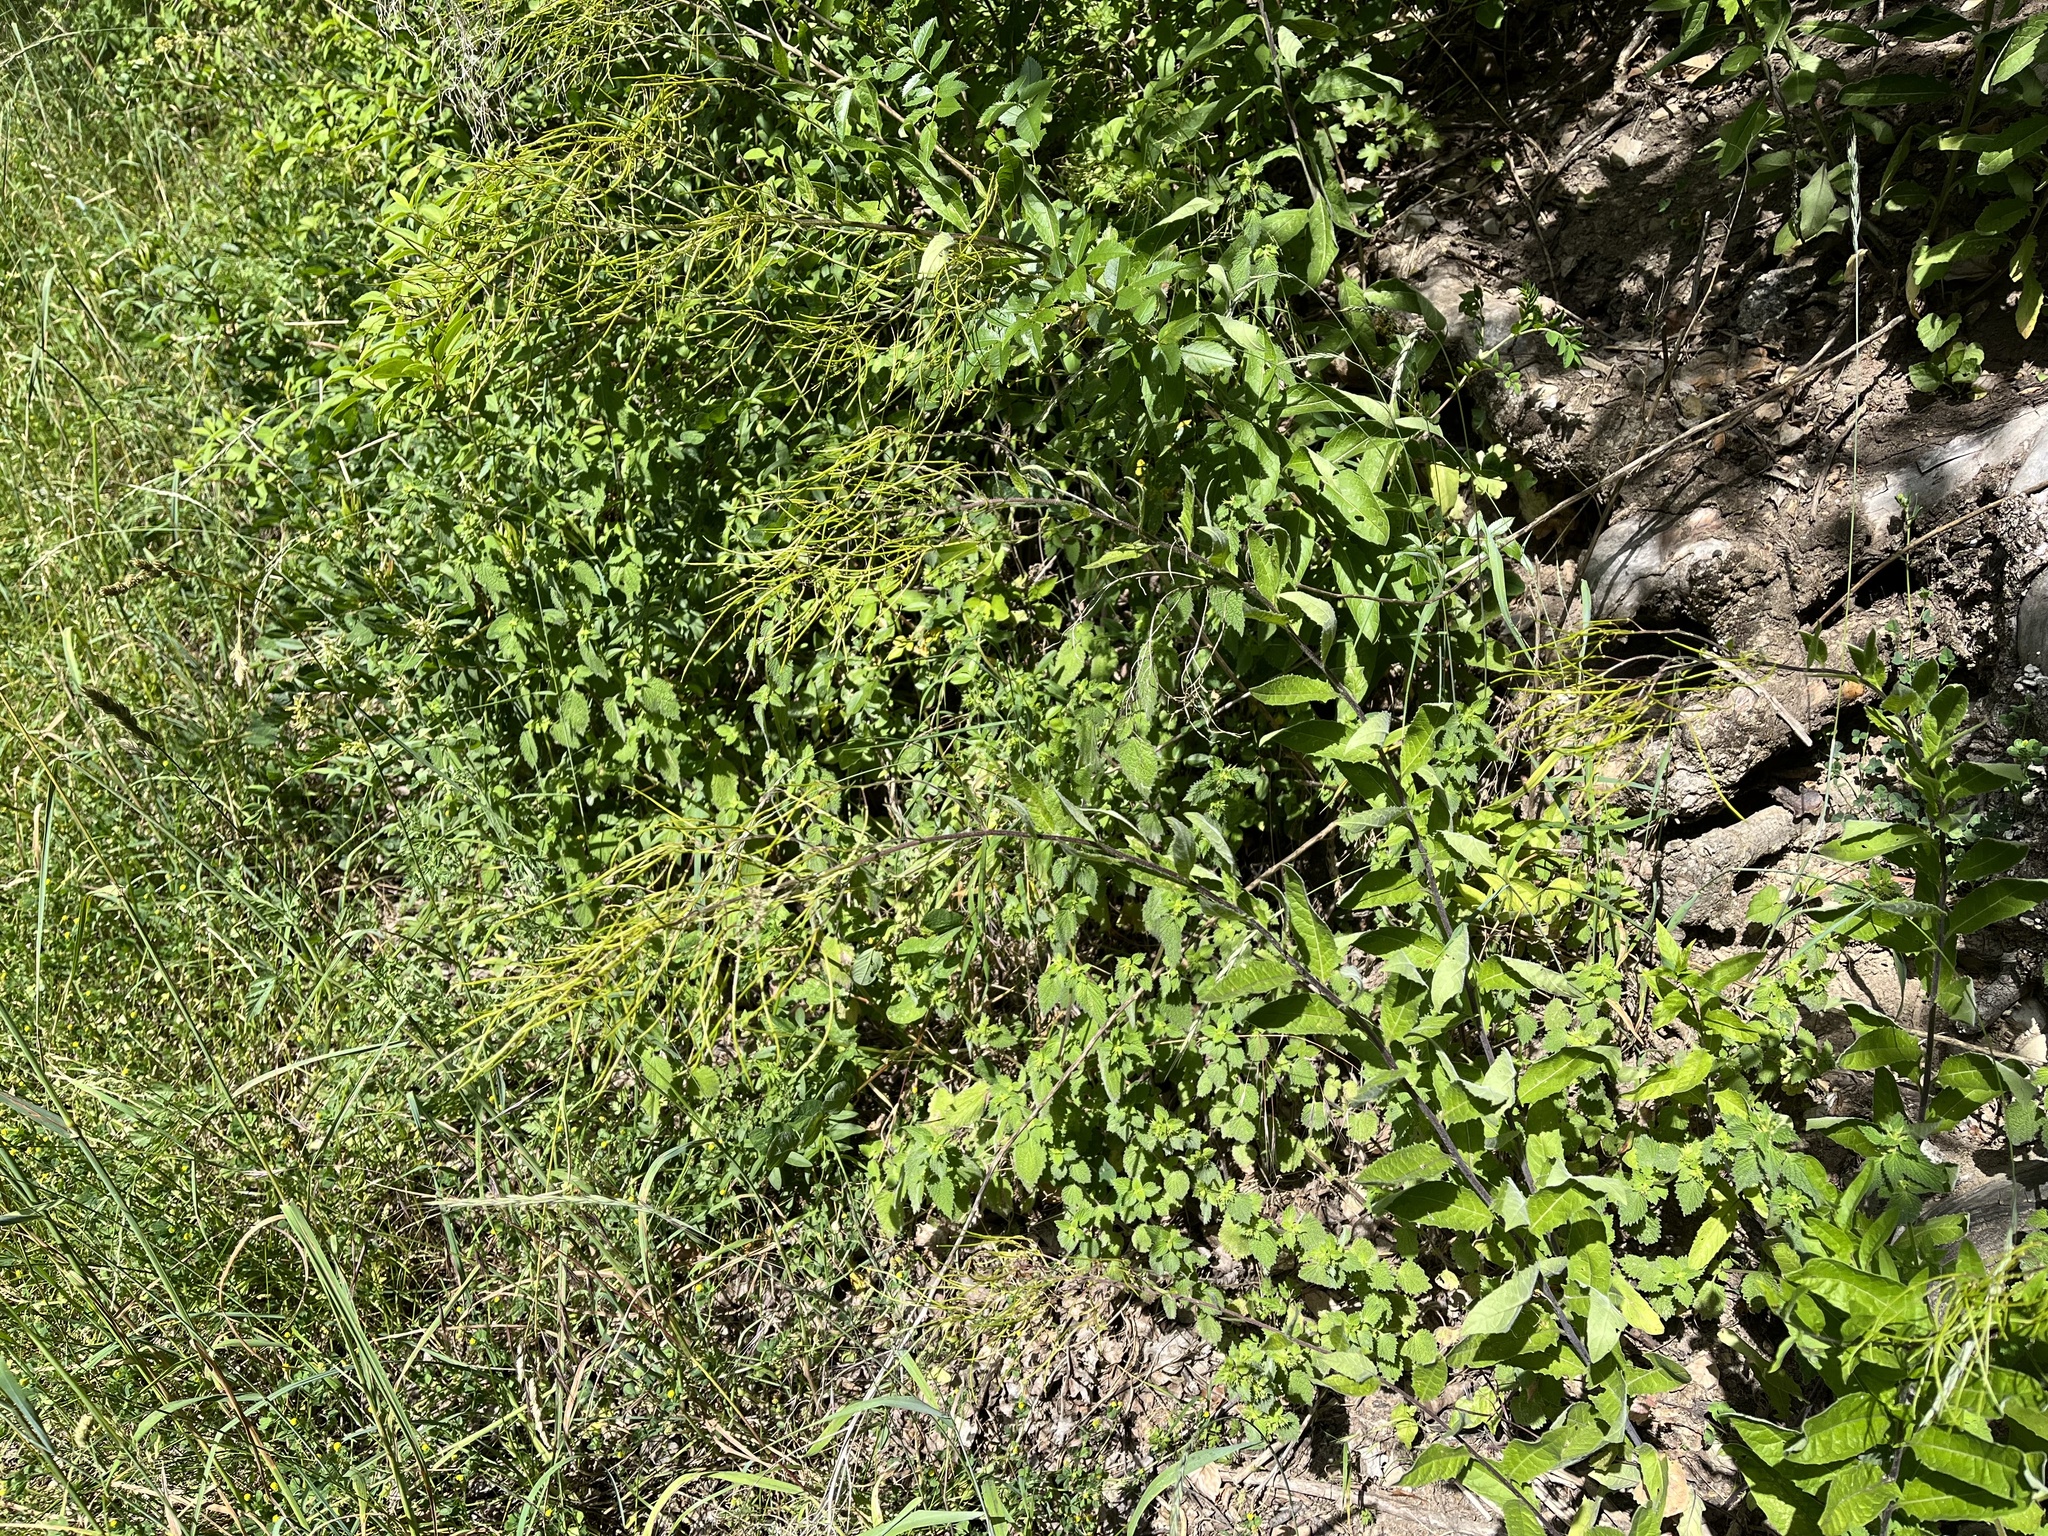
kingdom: Plantae
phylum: Tracheophyta
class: Magnoliopsida
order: Brassicales
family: Brassicaceae
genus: Sisymbrium
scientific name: Sisymbrium strictissimum
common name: Perennial rocket
